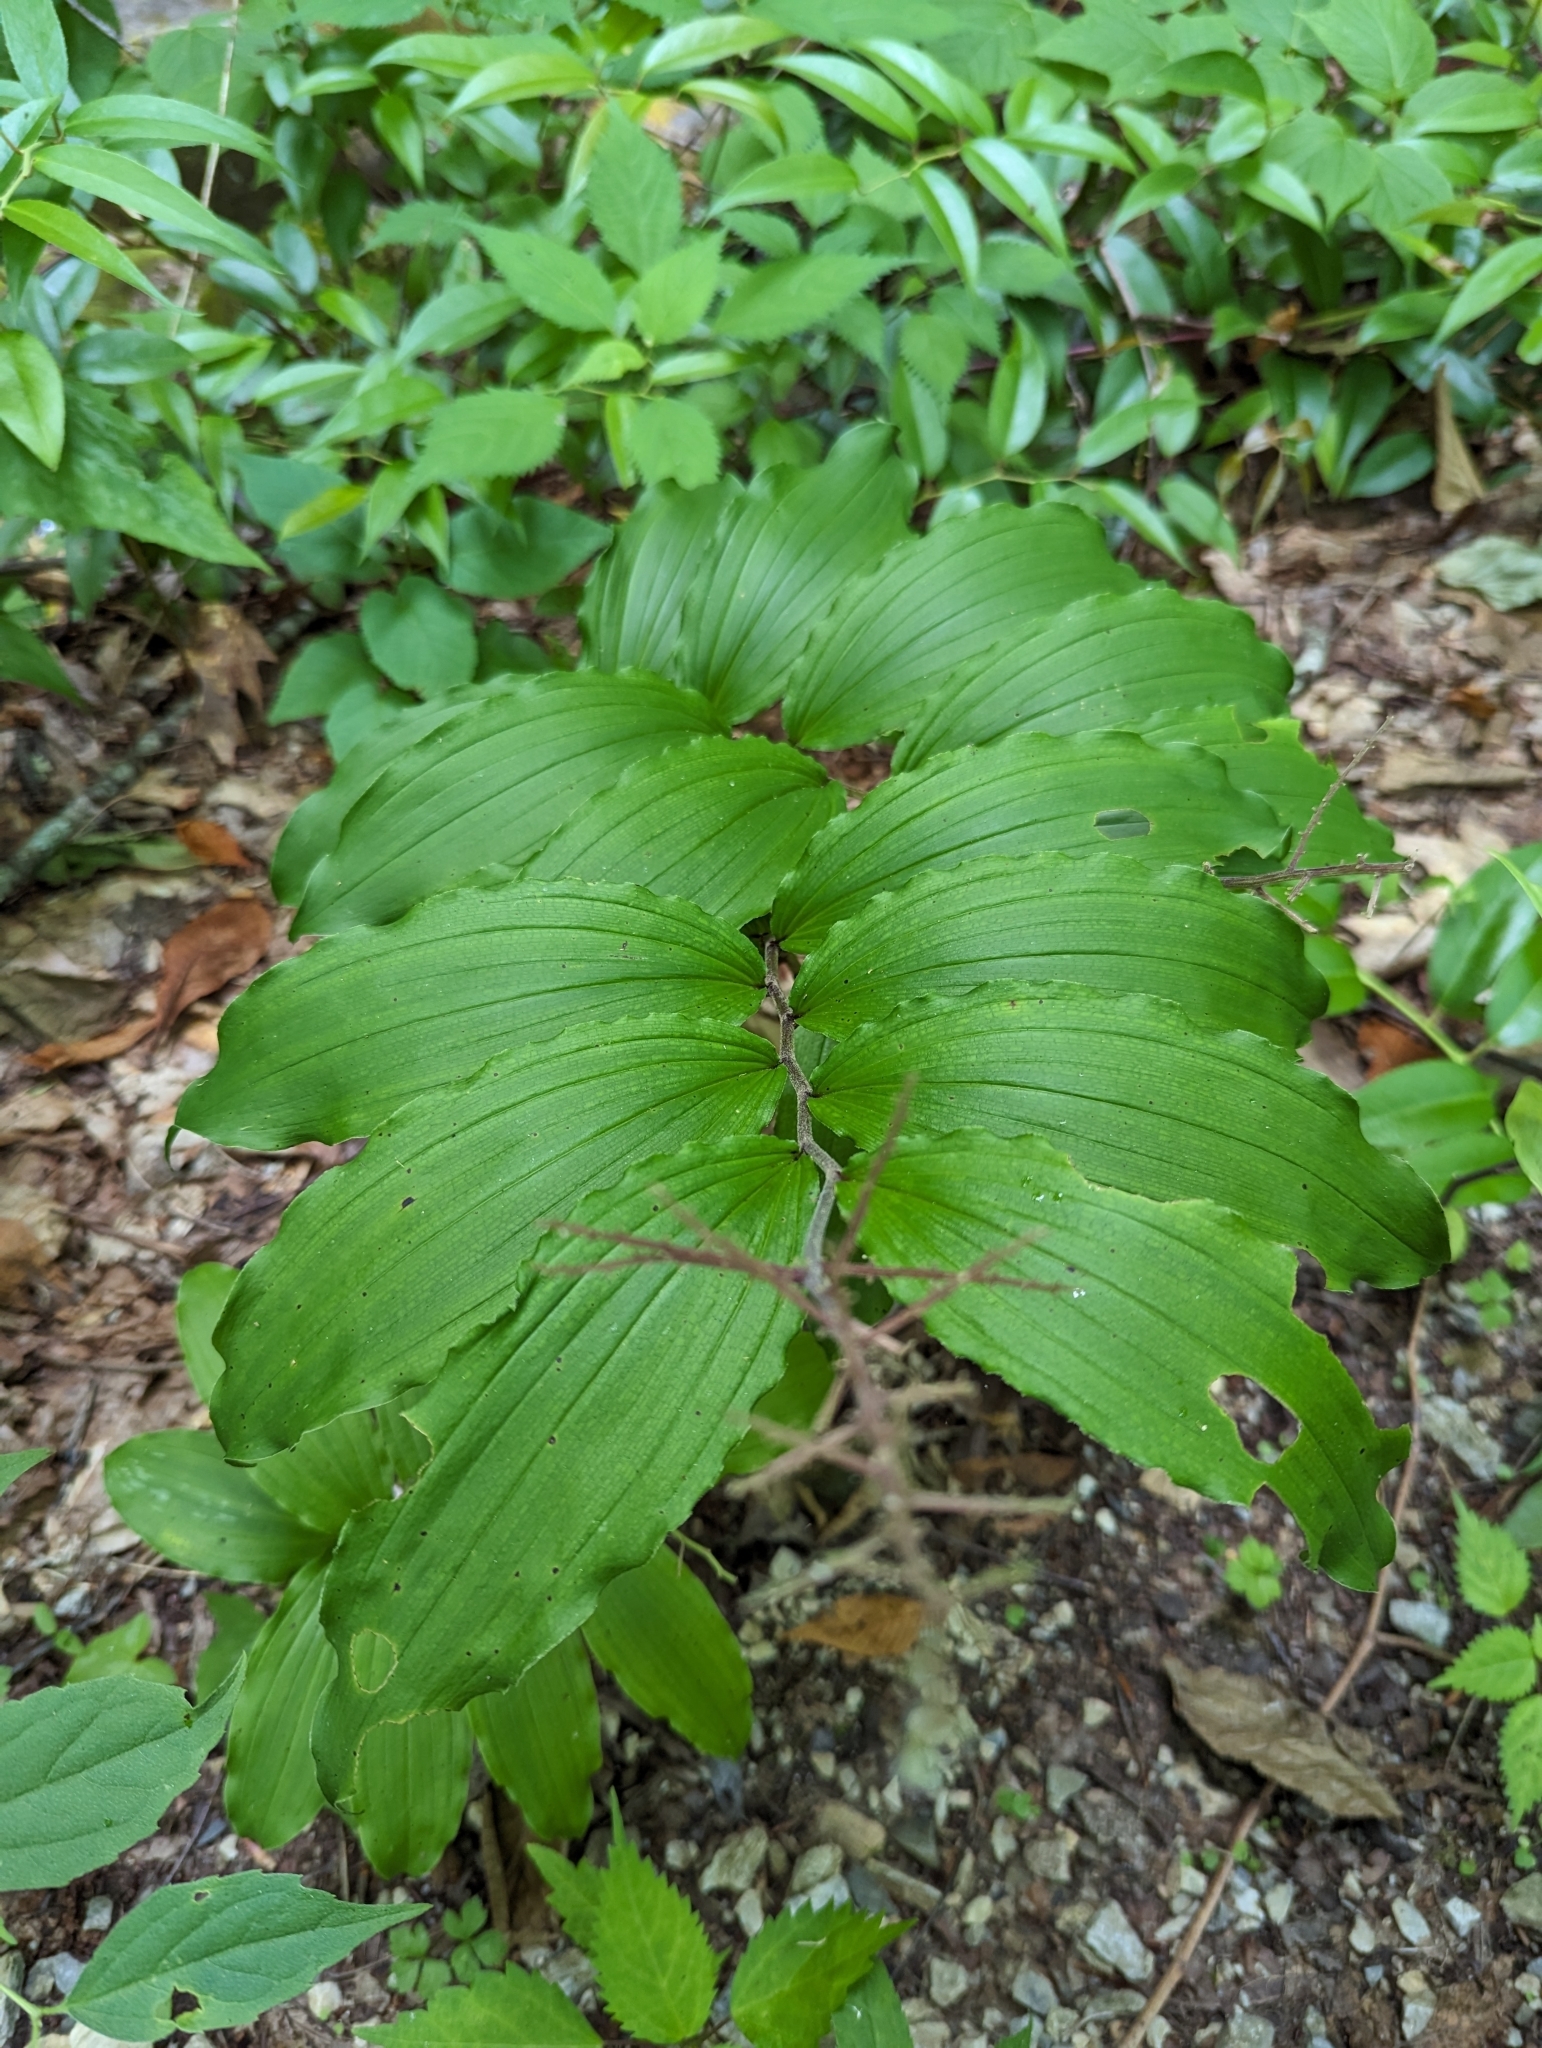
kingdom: Plantae
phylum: Tracheophyta
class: Liliopsida
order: Asparagales
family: Asparagaceae
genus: Maianthemum
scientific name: Maianthemum racemosum
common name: False spikenard
